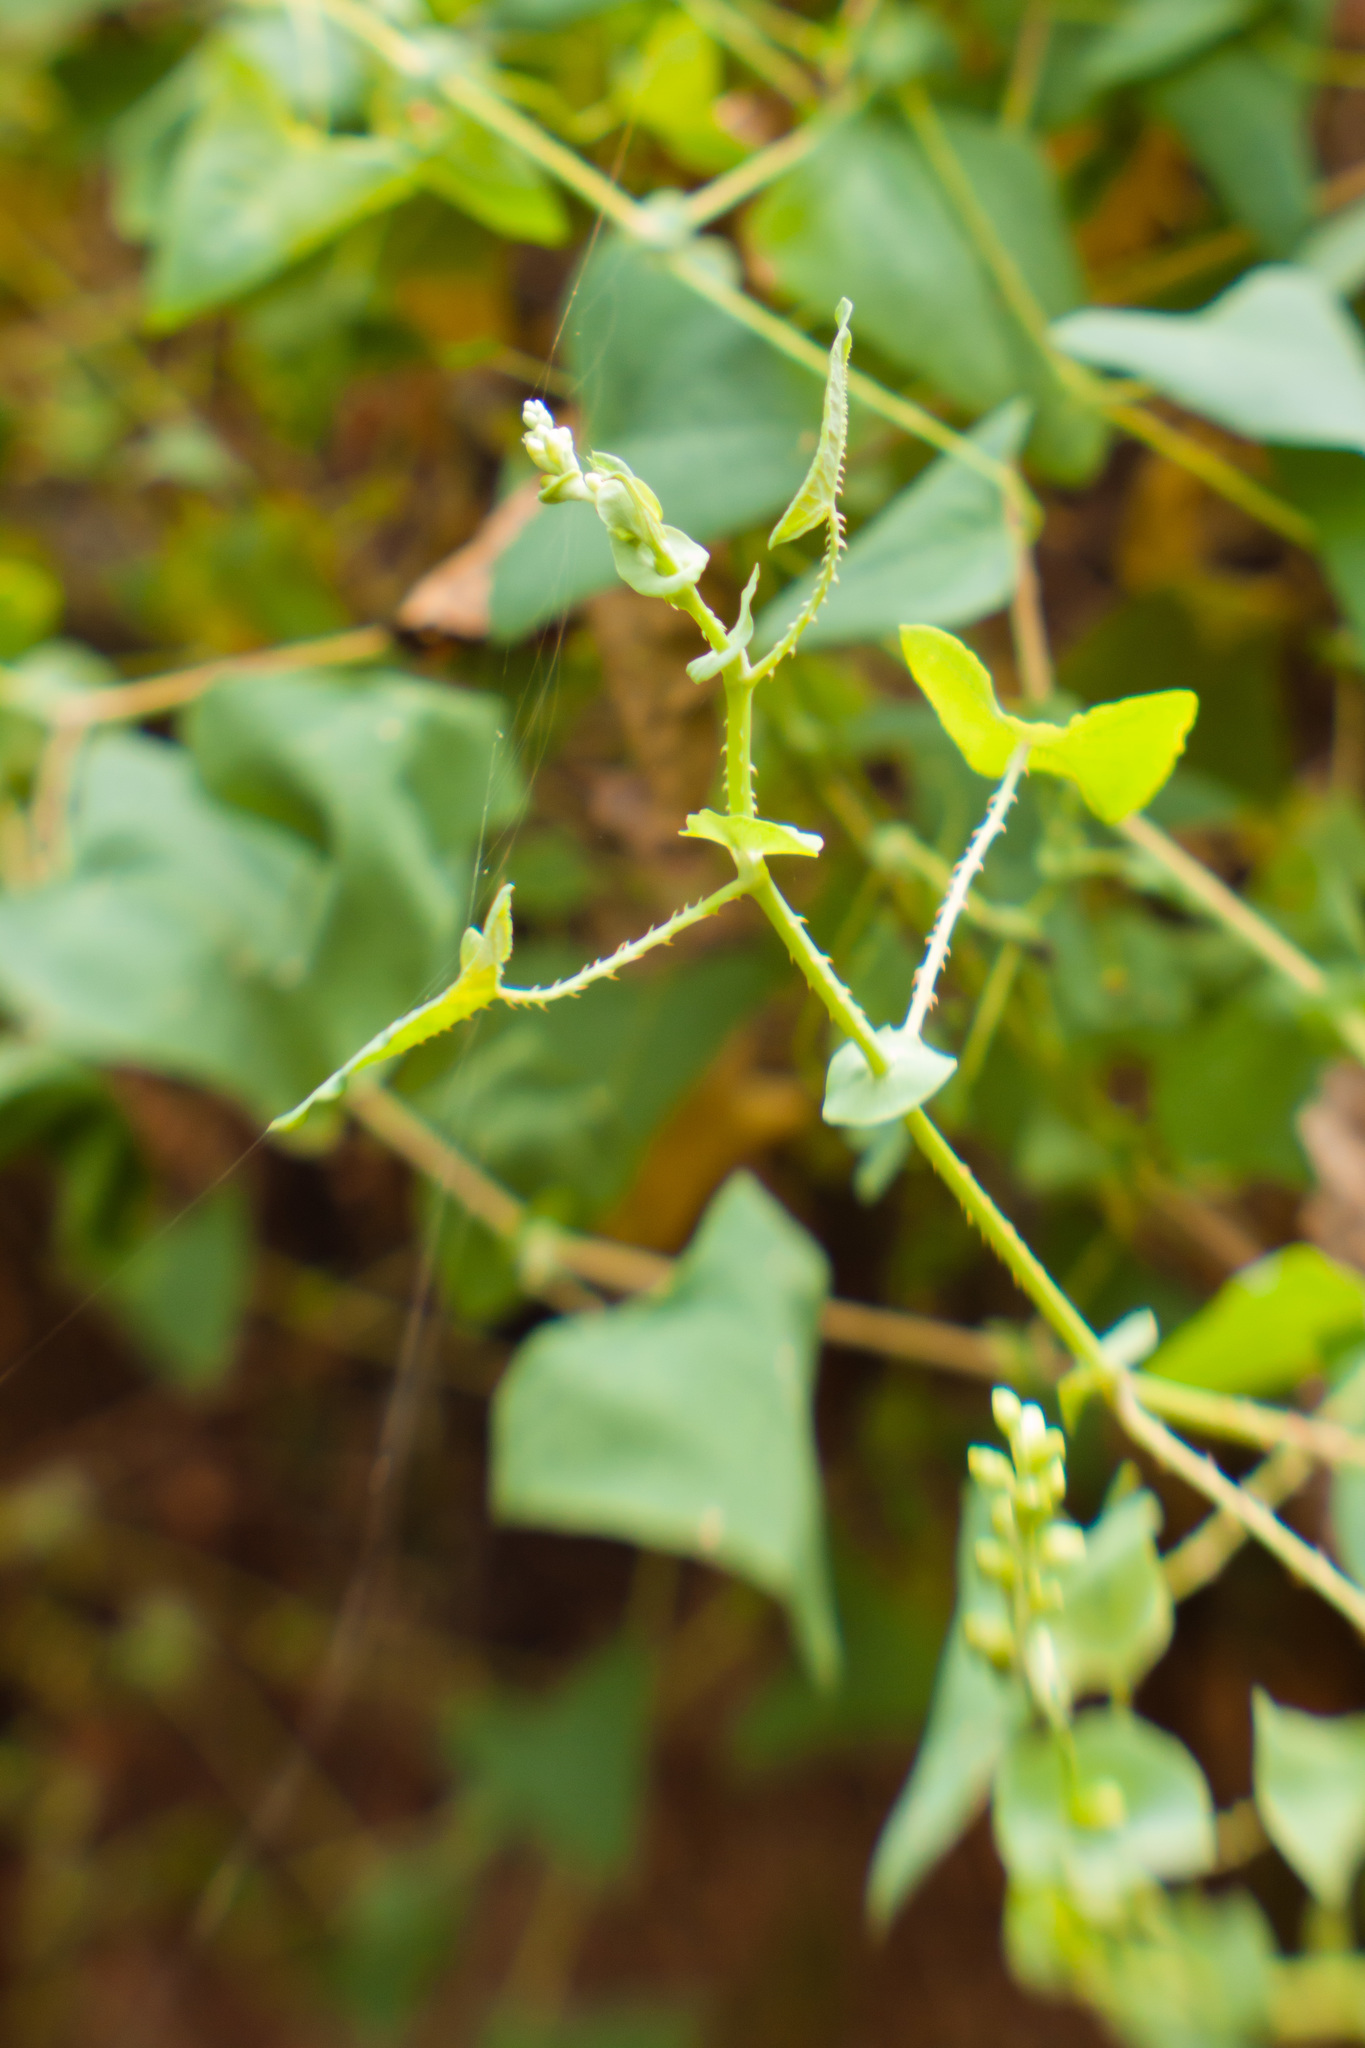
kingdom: Plantae
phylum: Tracheophyta
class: Magnoliopsida
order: Caryophyllales
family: Polygonaceae
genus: Persicaria
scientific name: Persicaria perfoliata
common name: Asiatic tearthumb
